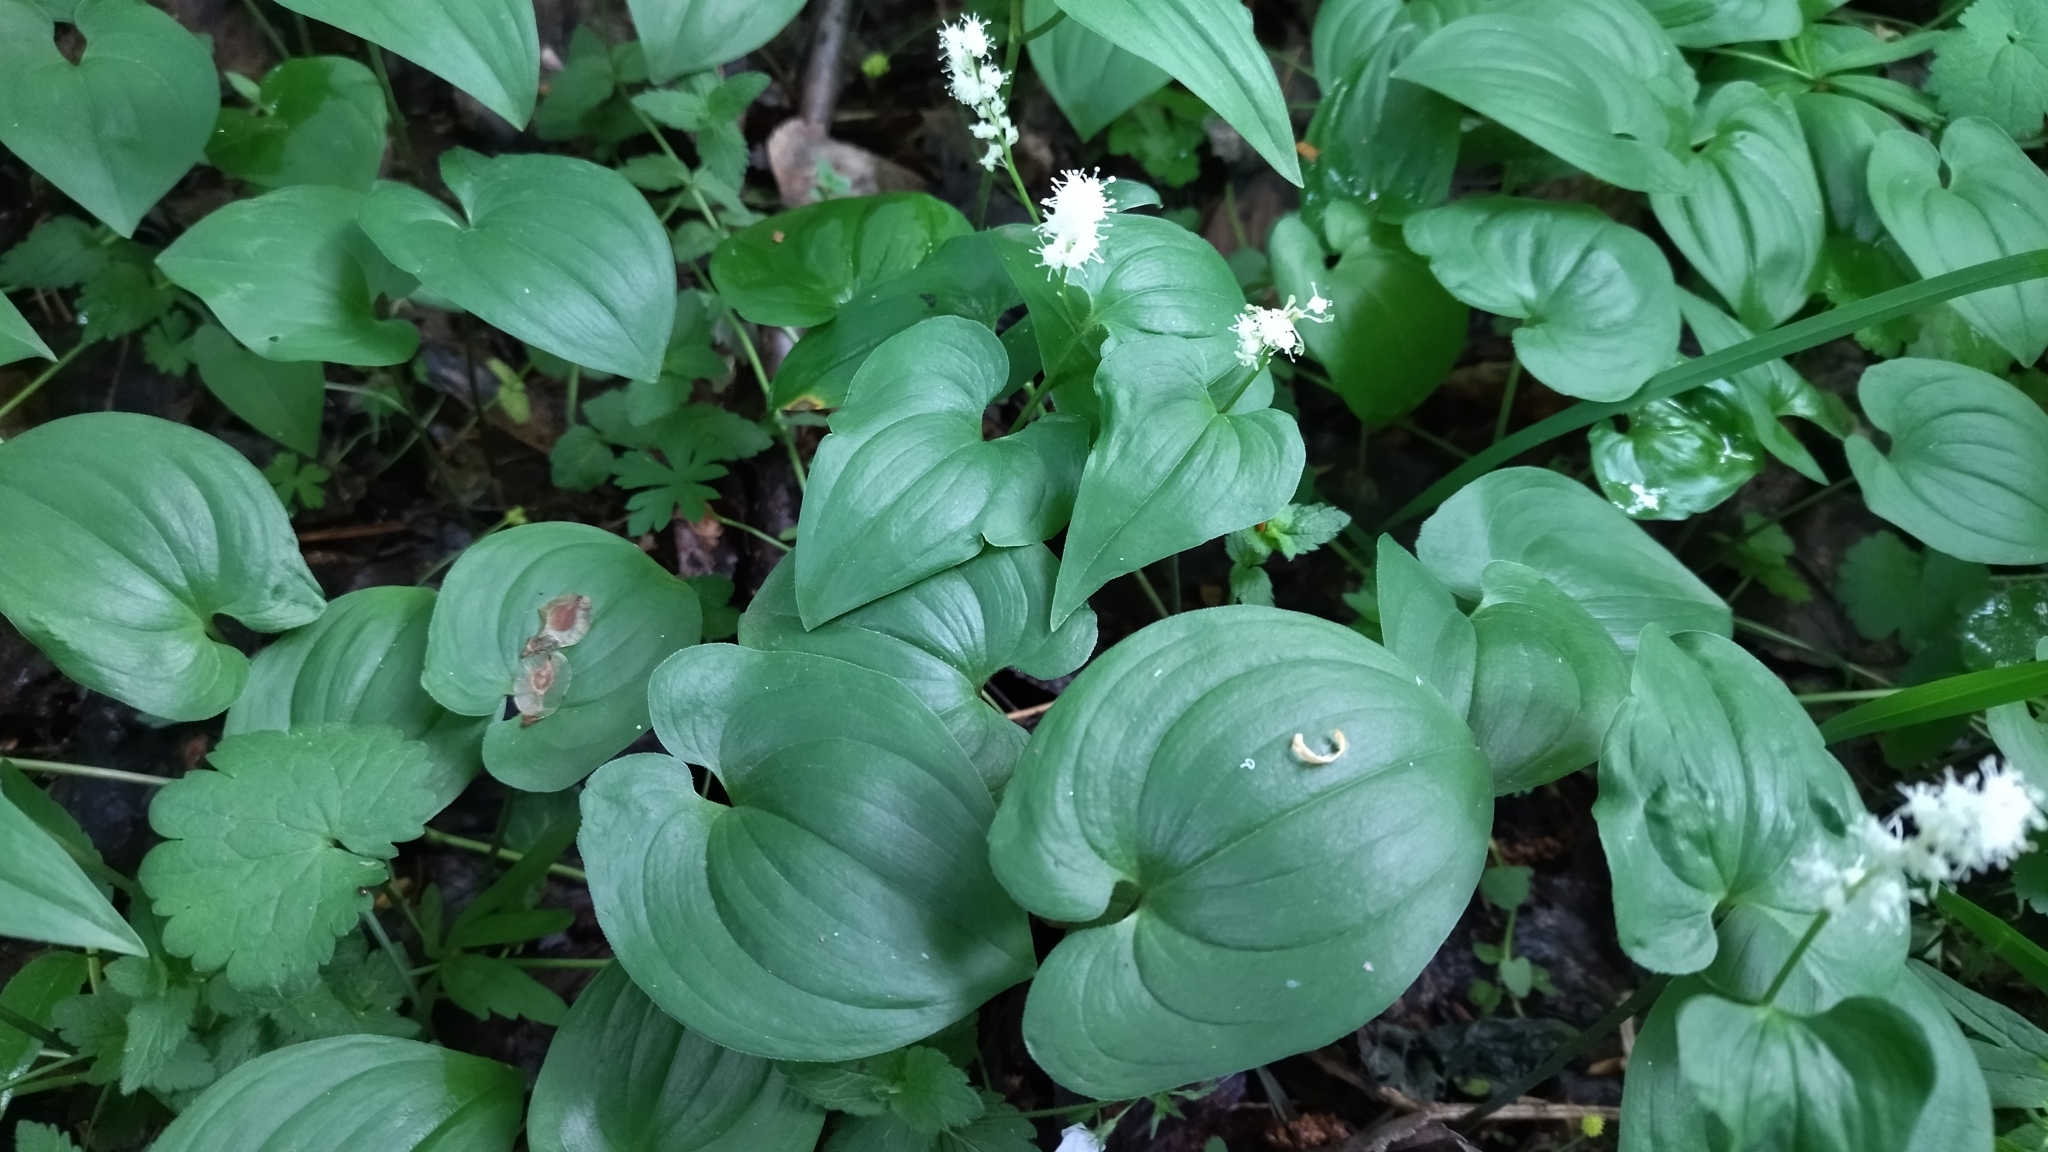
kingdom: Plantae
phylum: Tracheophyta
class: Liliopsida
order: Asparagales
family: Asparagaceae
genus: Maianthemum
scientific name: Maianthemum bifolium
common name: May lily
